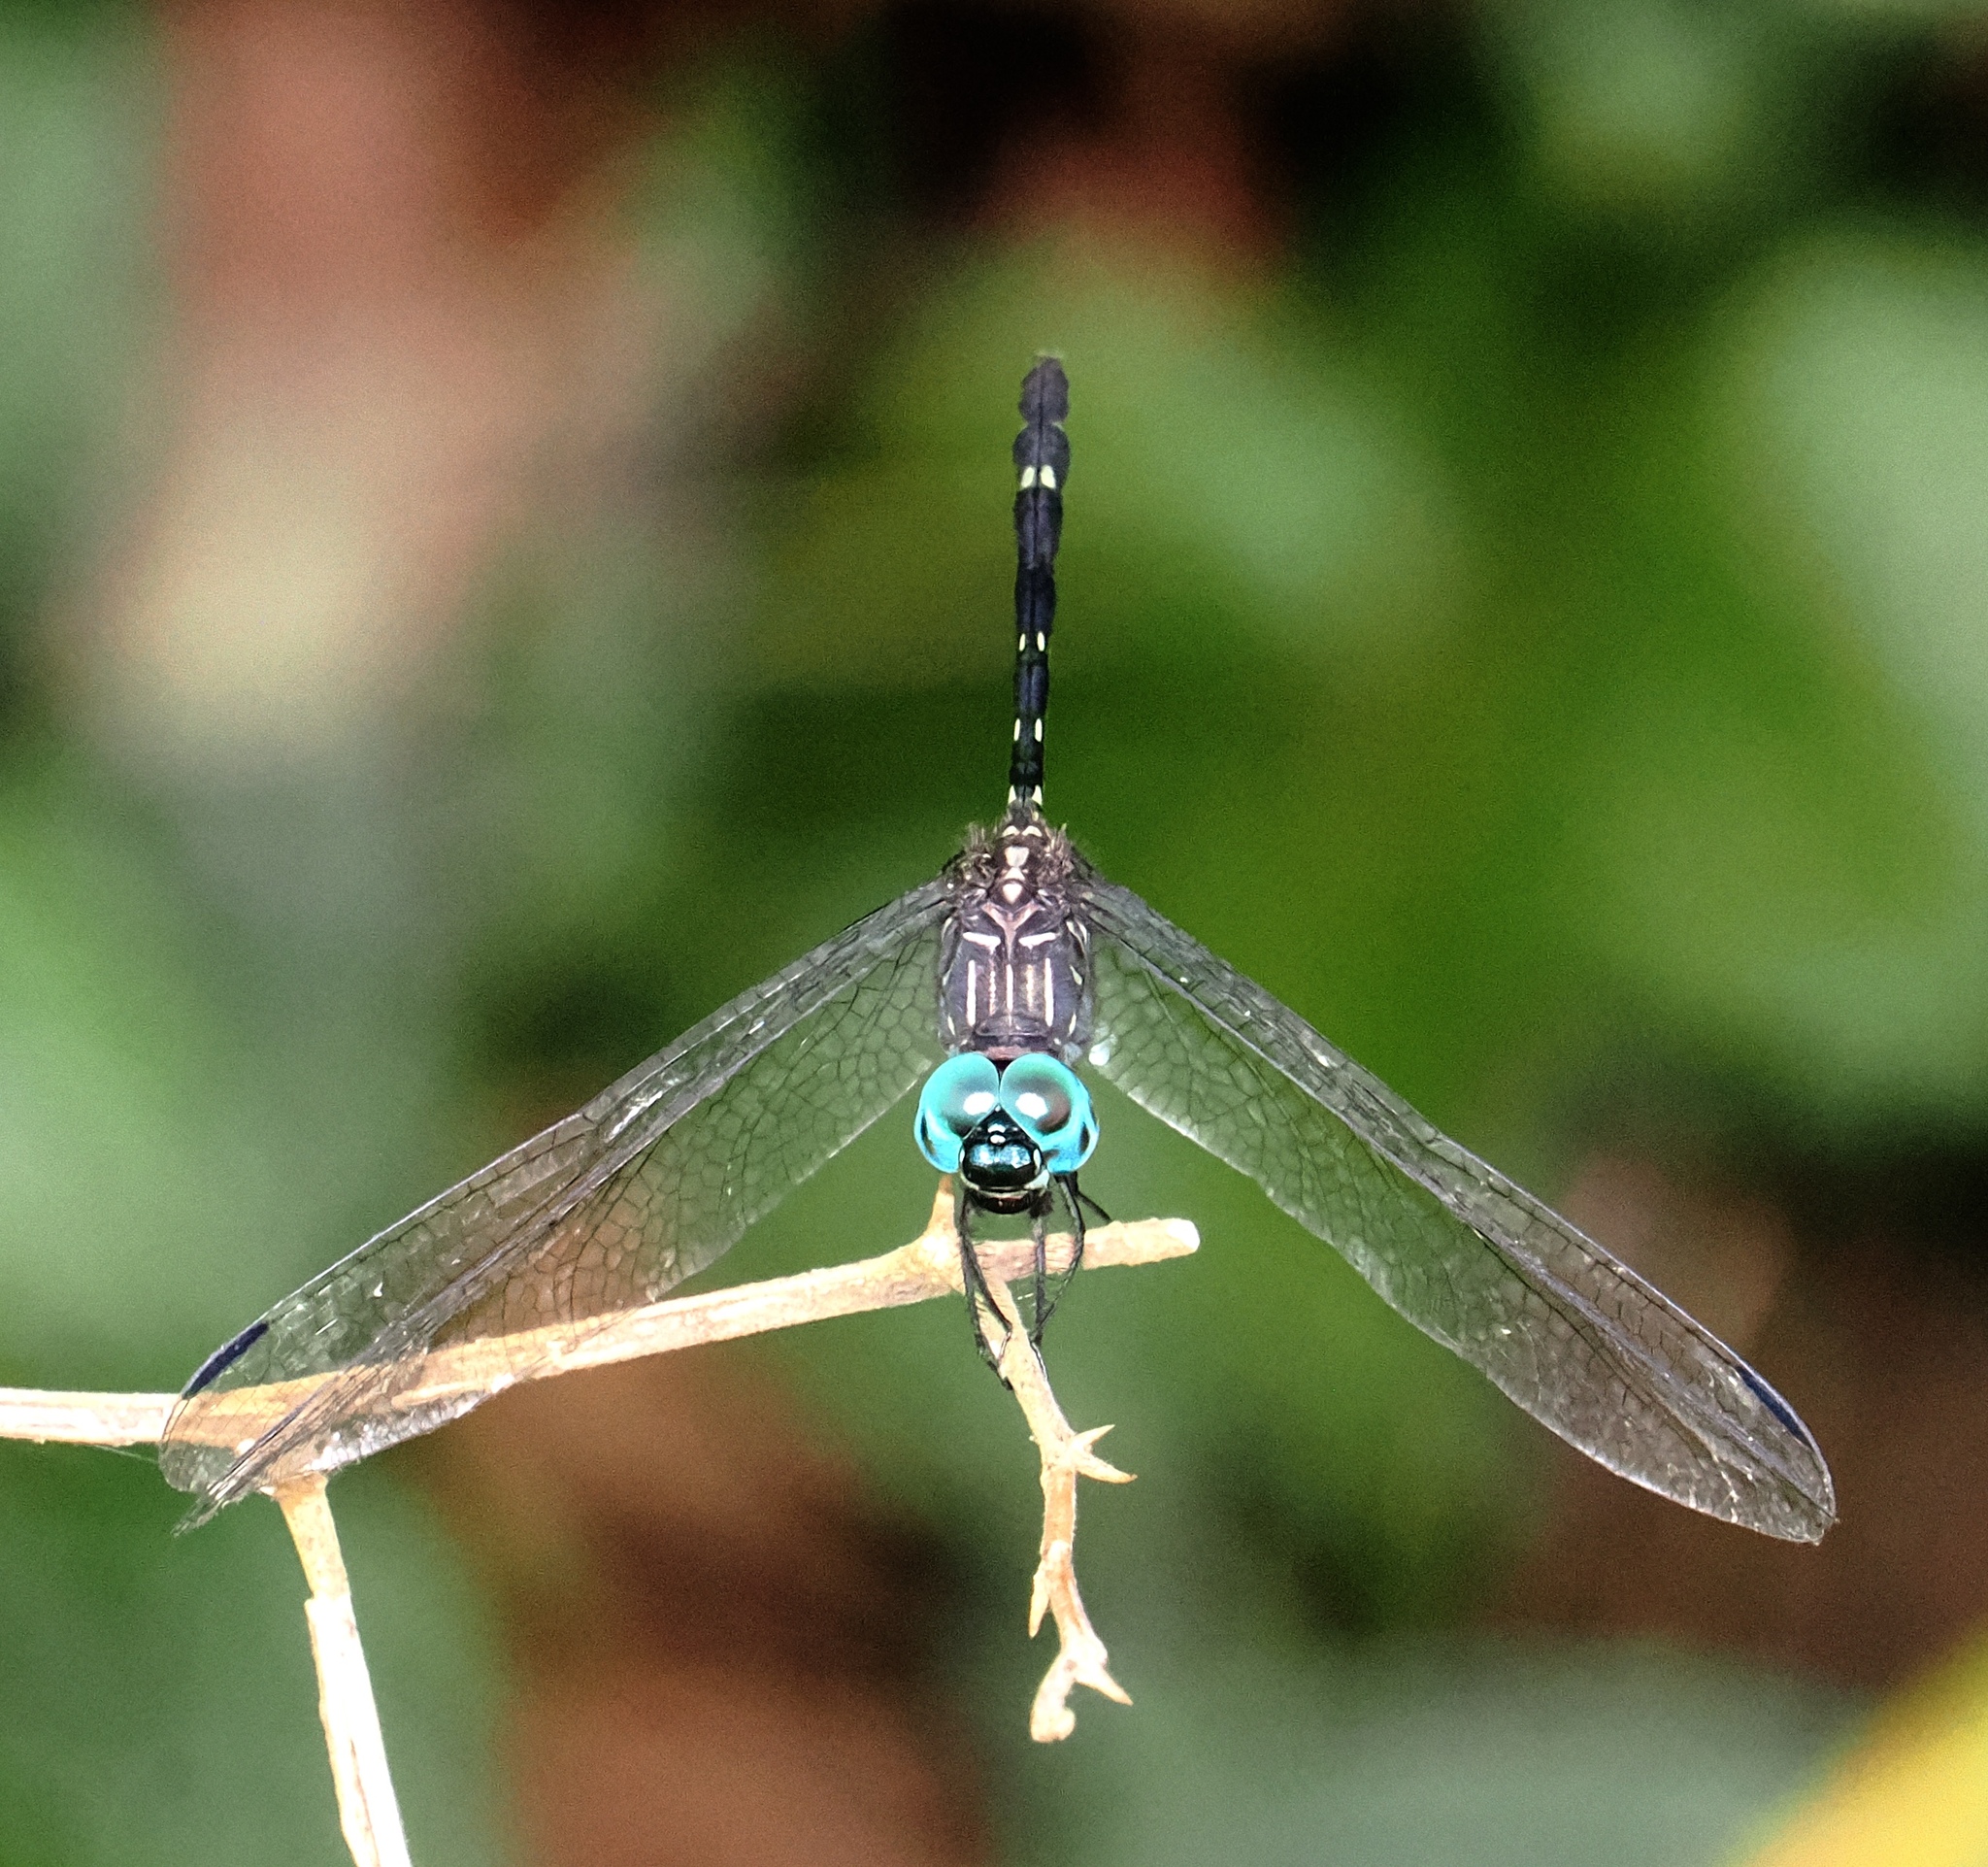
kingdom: Animalia
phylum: Arthropoda
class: Insecta
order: Odonata
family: Libellulidae
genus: Dythemis
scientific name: Dythemis nigra
